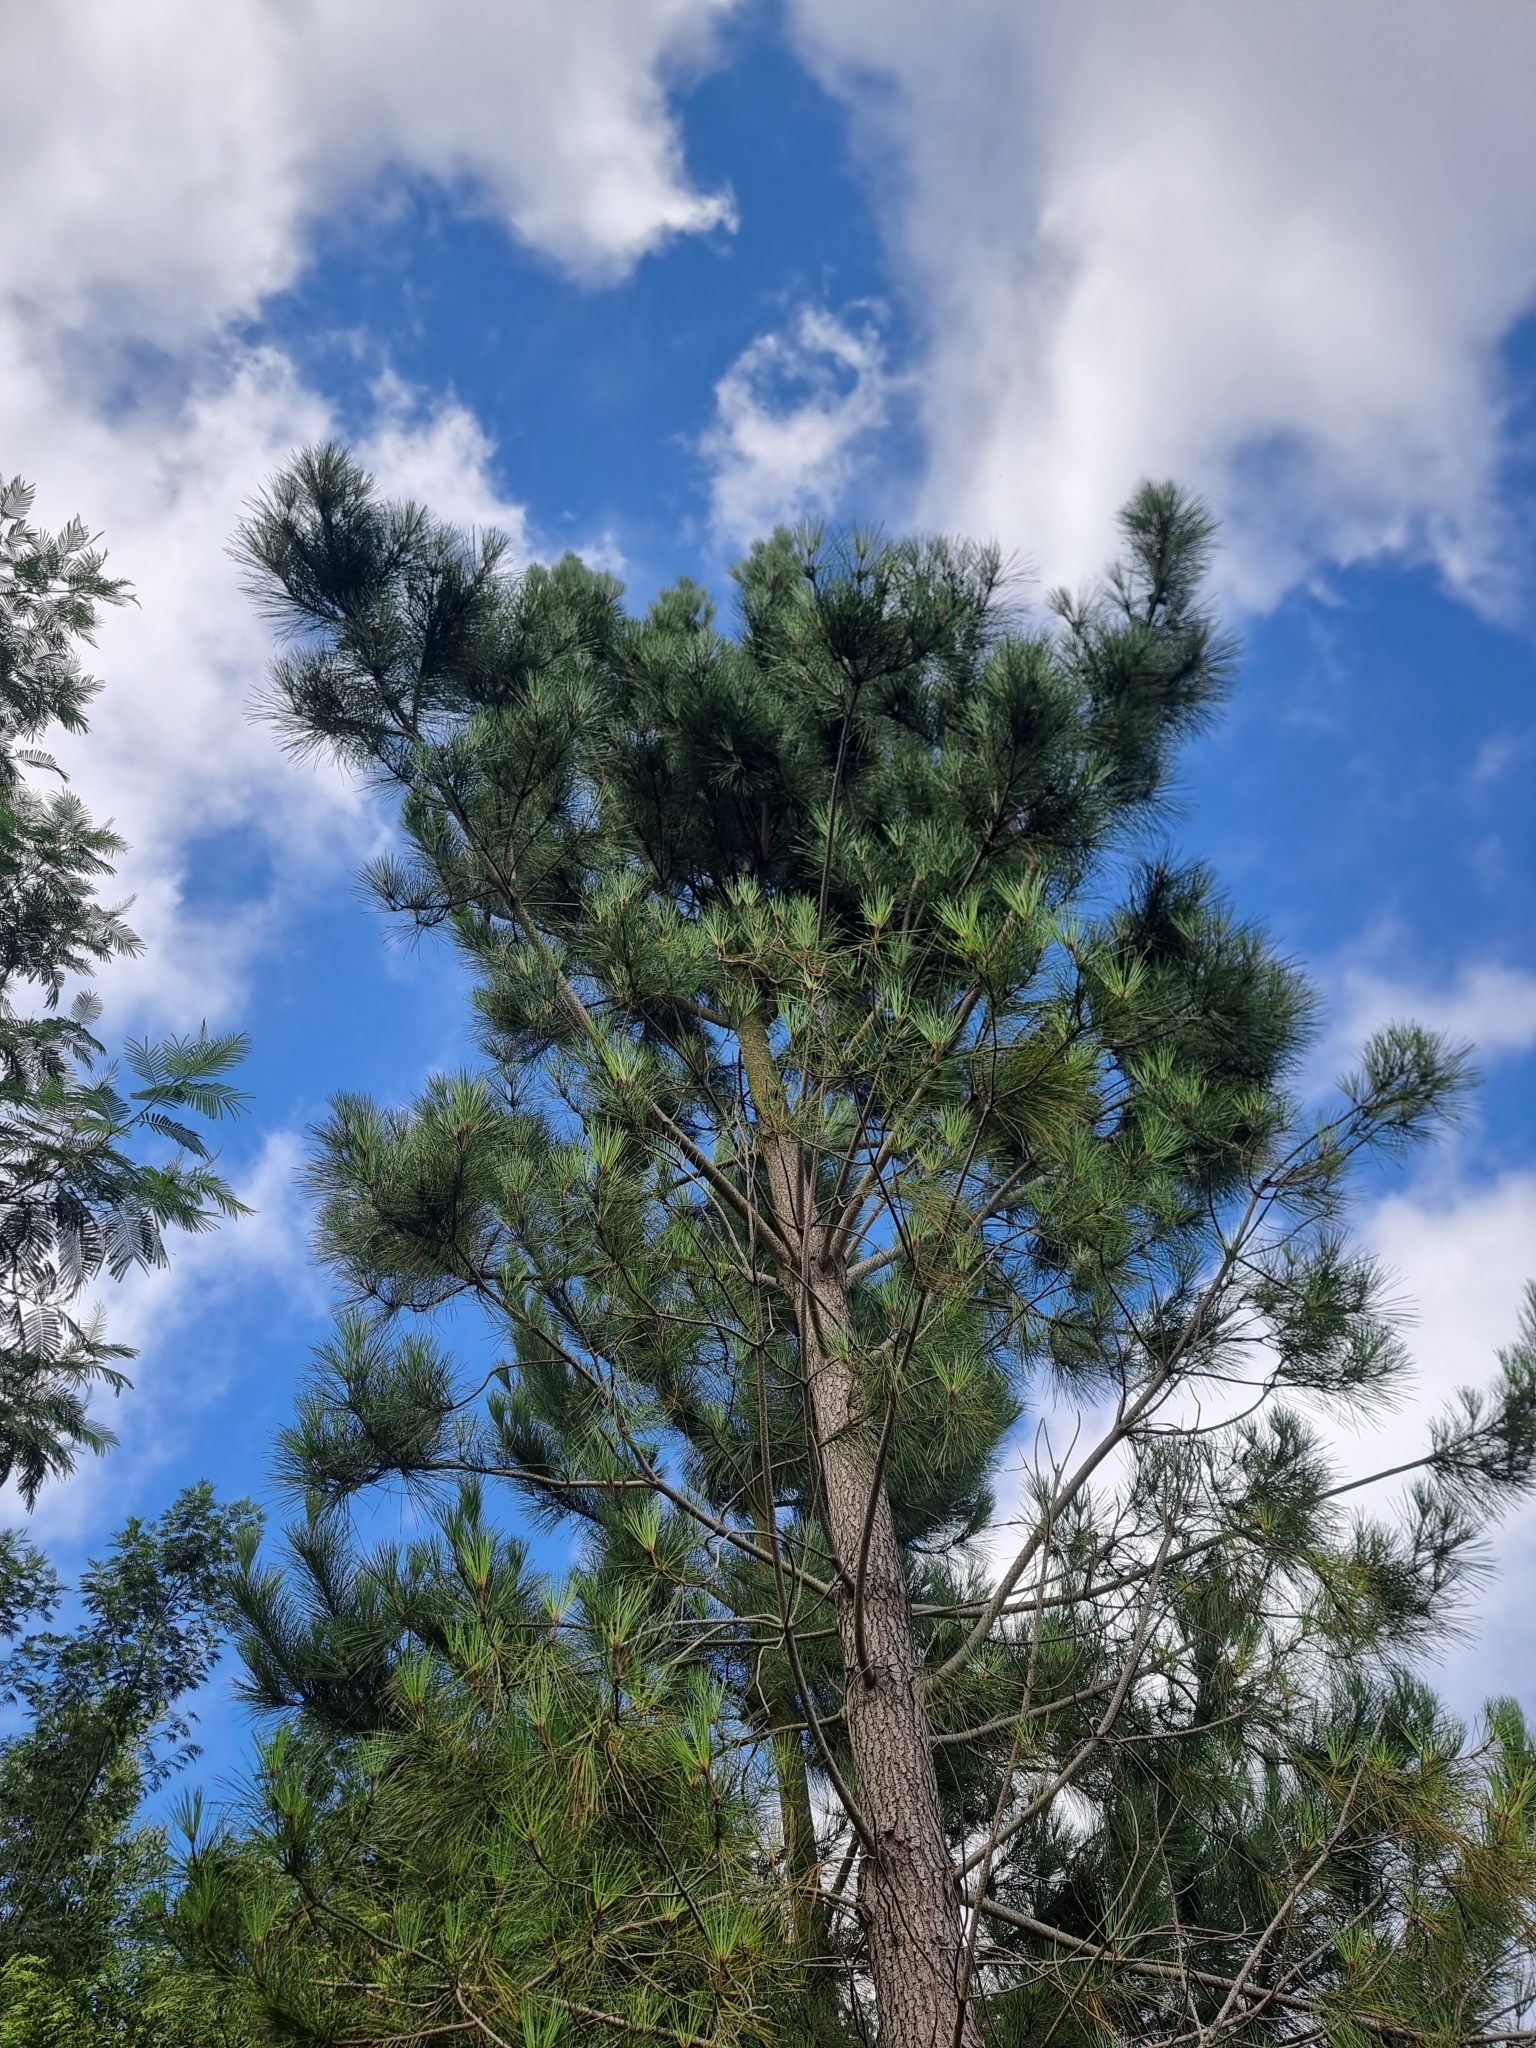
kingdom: Plantae
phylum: Tracheophyta
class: Pinopsida
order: Pinales
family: Pinaceae
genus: Pinus
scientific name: Pinus pinaster
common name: Maritime pine
